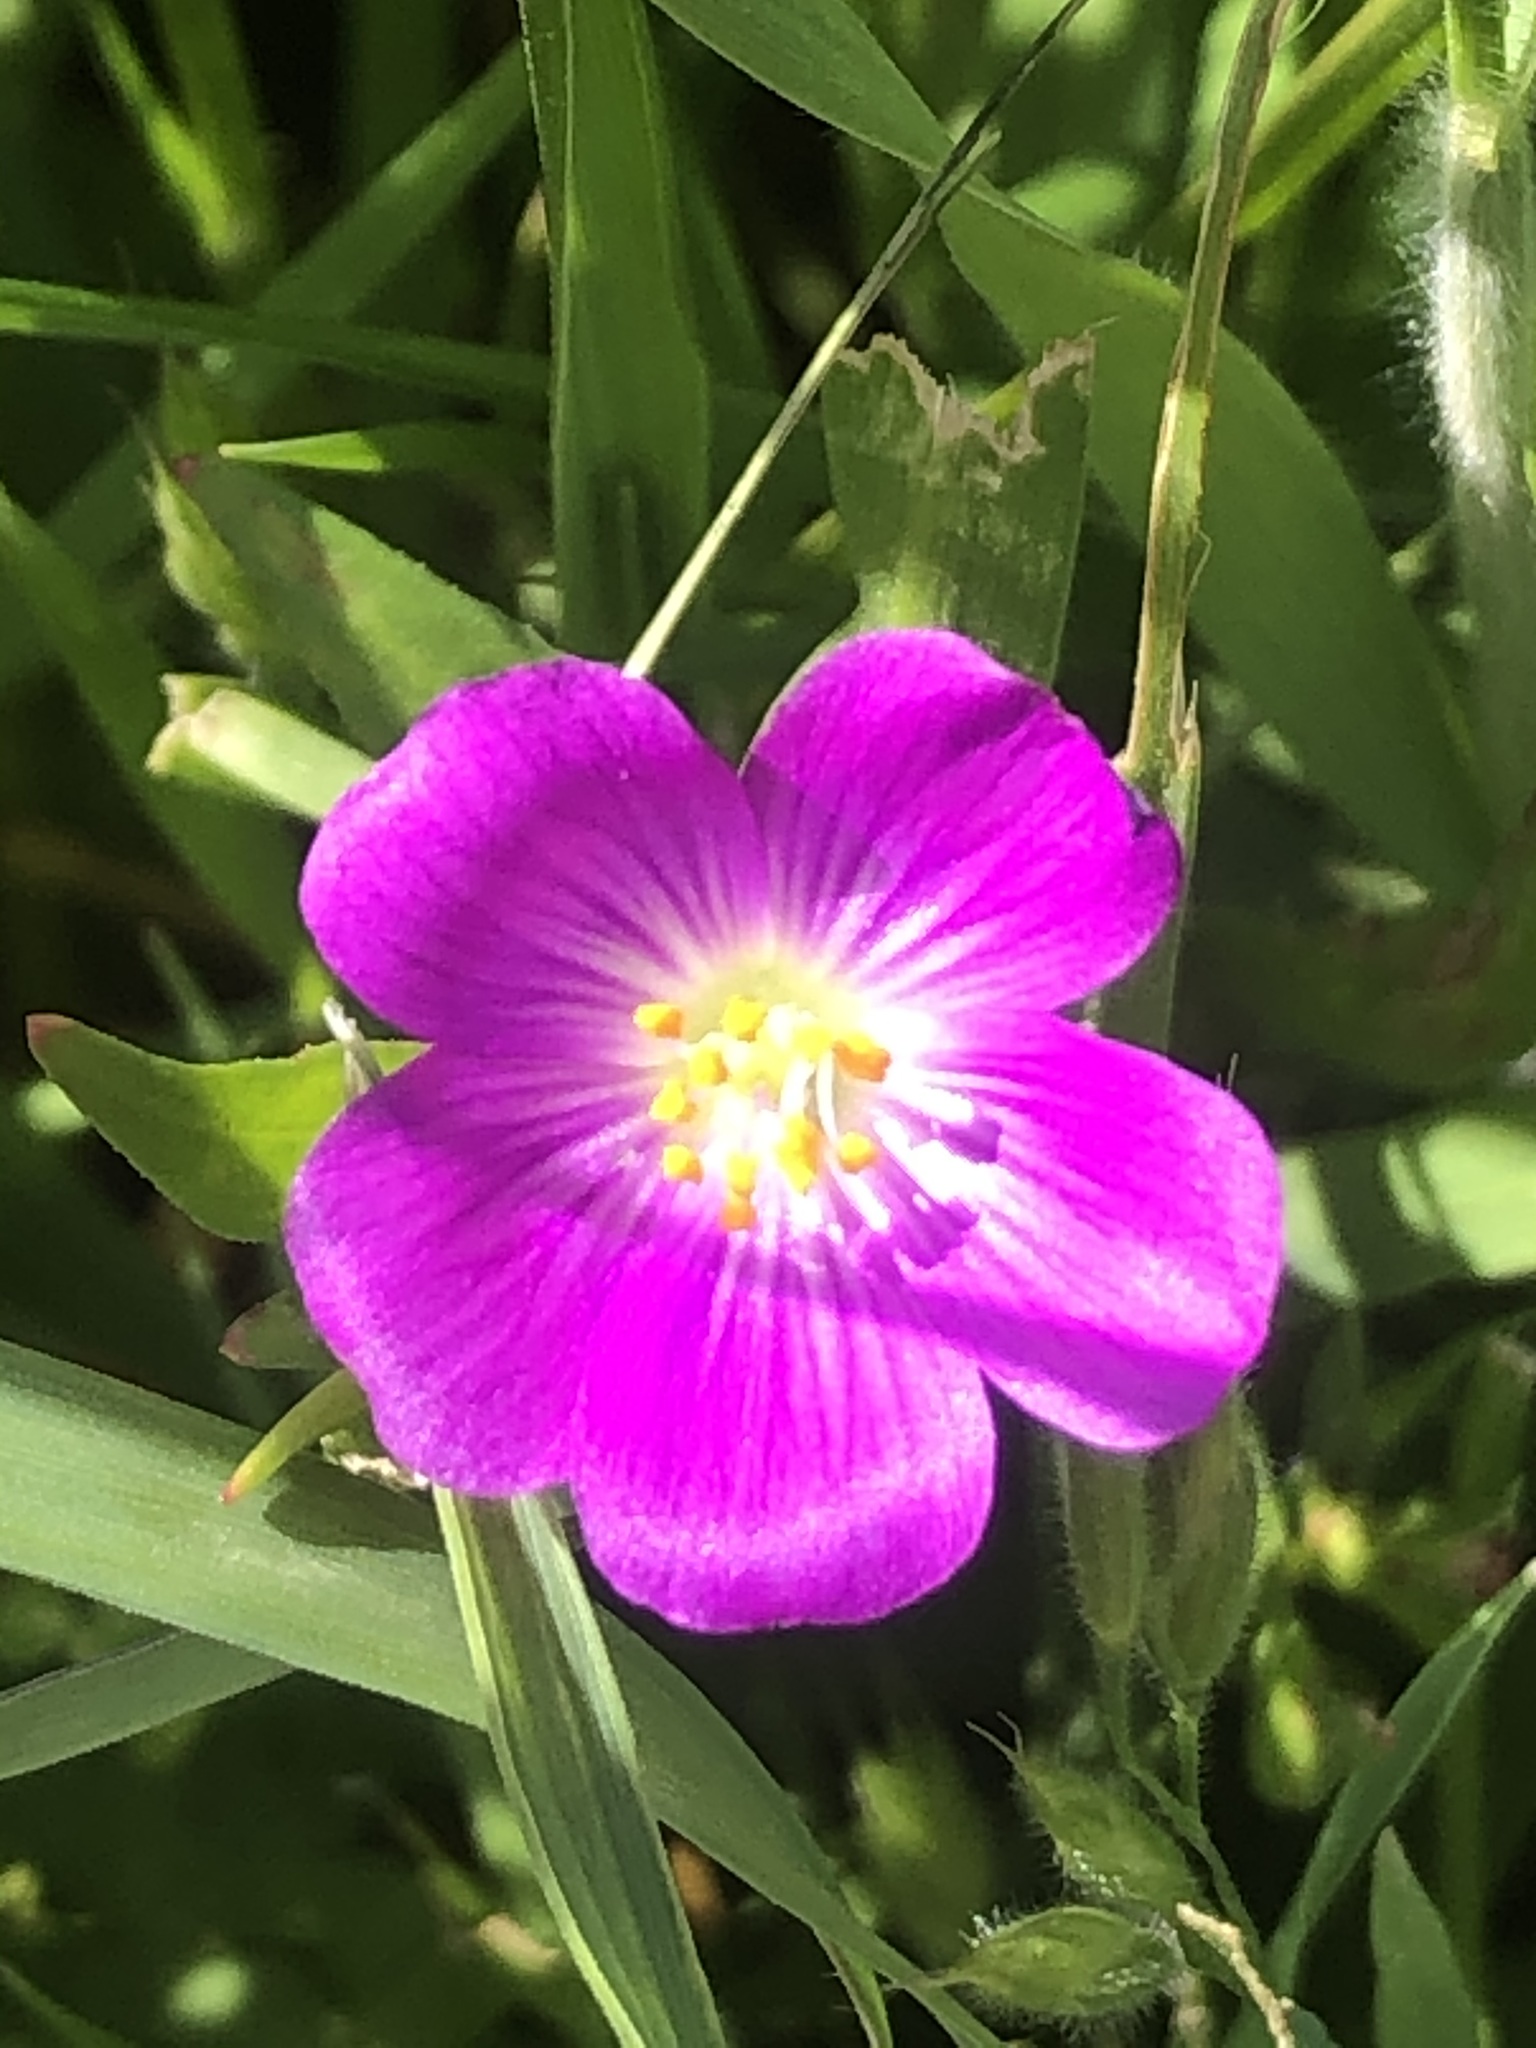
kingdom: Plantae
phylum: Tracheophyta
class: Magnoliopsida
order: Caryophyllales
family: Montiaceae
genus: Calandrinia
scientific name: Calandrinia menziesii
